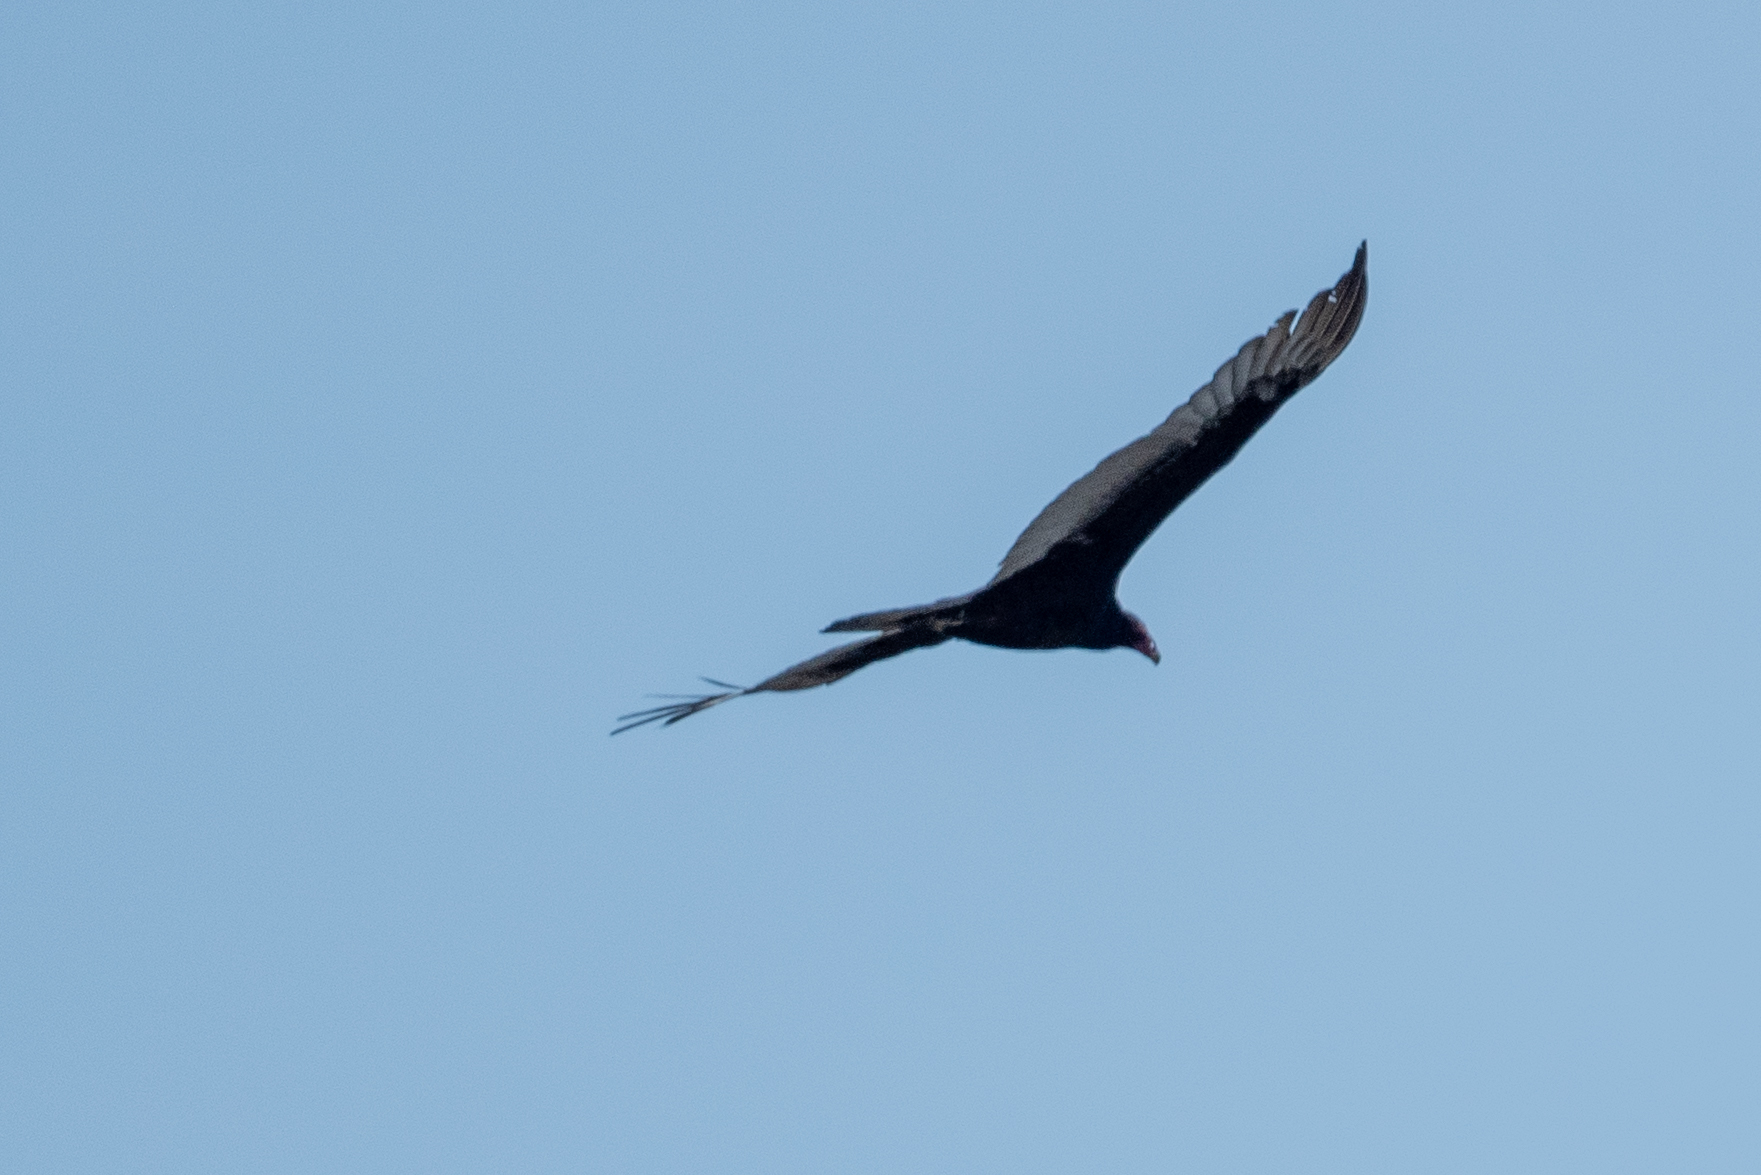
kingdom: Animalia
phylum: Chordata
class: Aves
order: Accipitriformes
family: Cathartidae
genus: Cathartes
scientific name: Cathartes aura
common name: Turkey vulture
